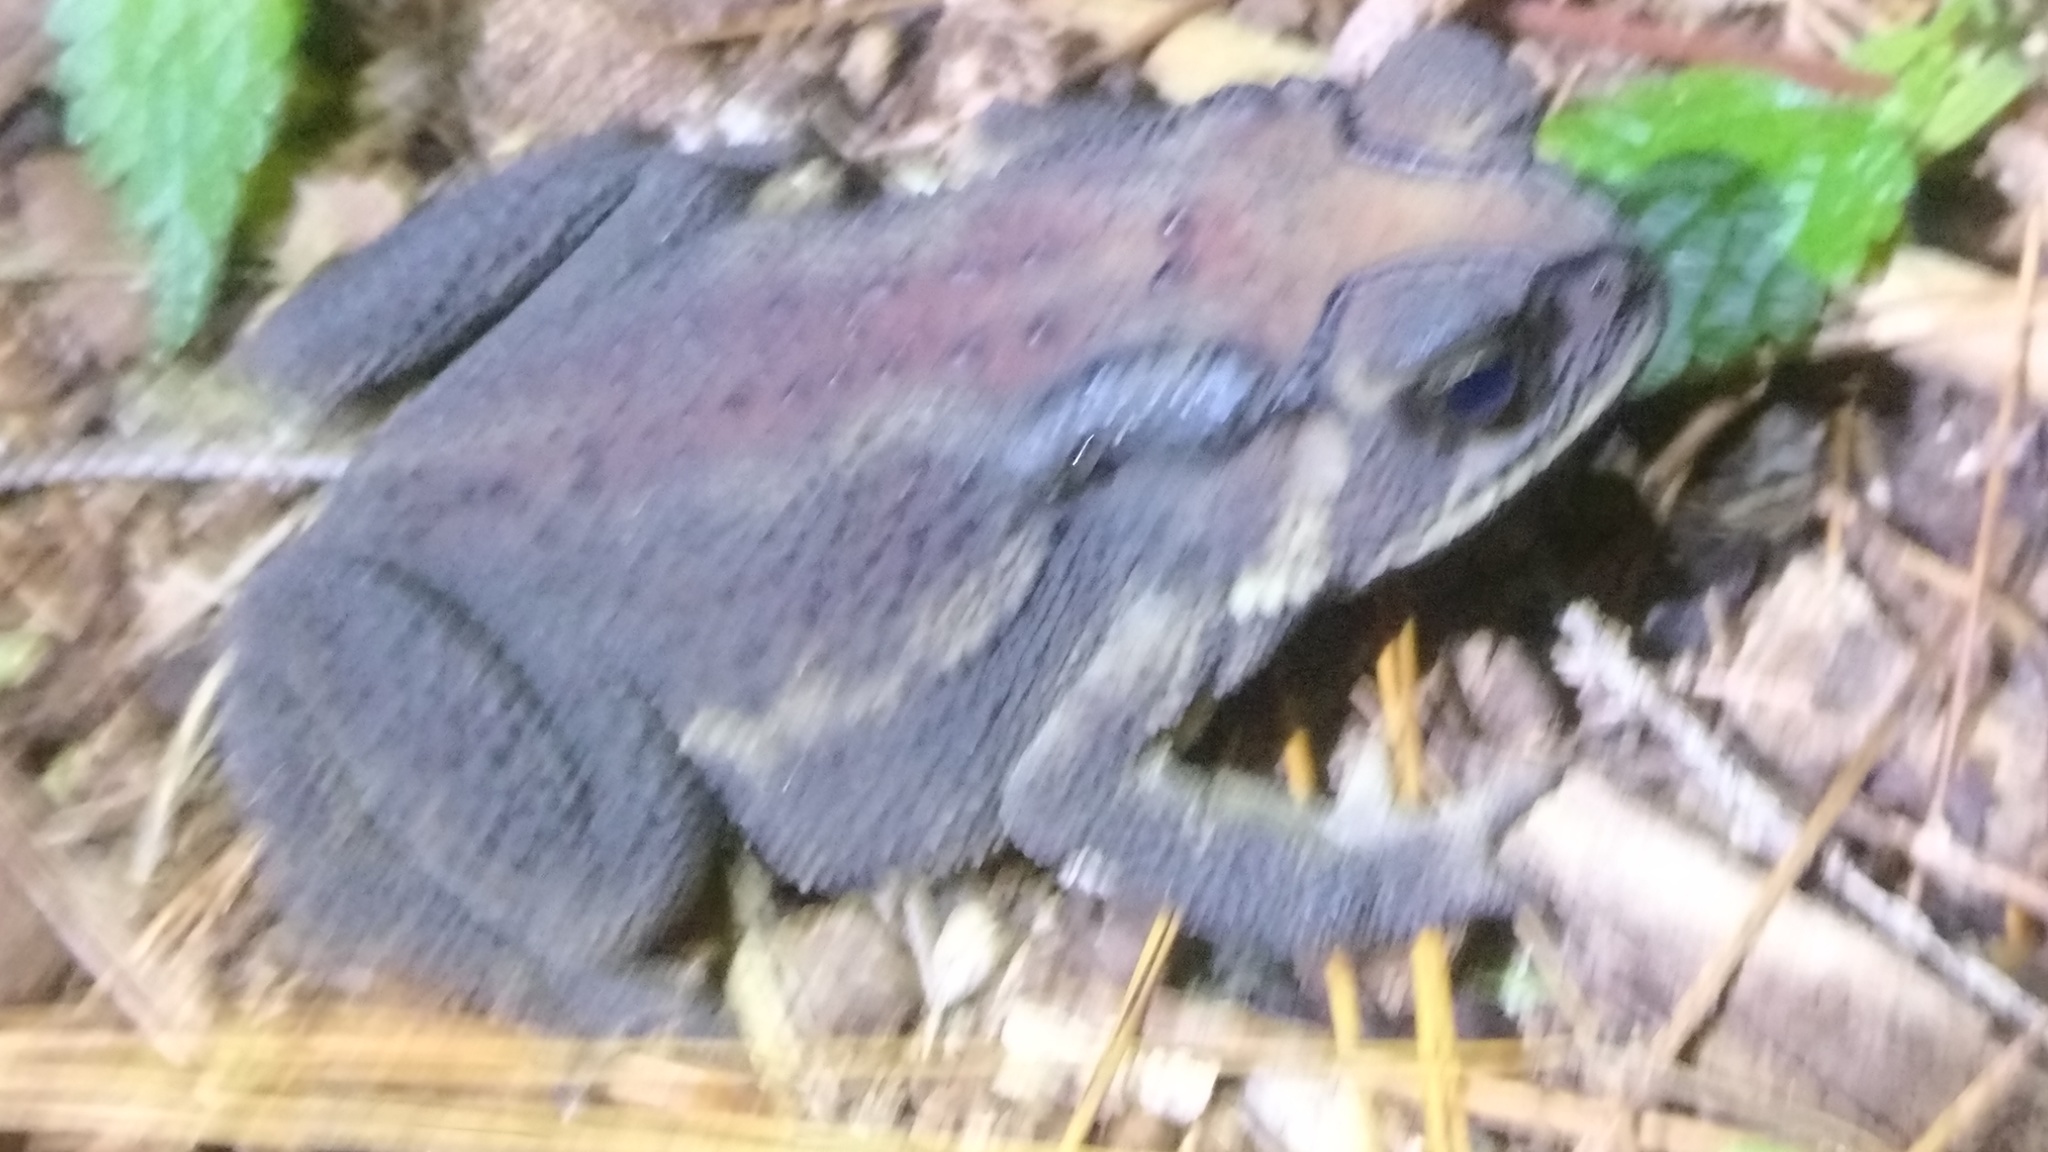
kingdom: Animalia
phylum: Chordata
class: Amphibia
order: Anura
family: Bufonidae
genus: Duttaphrynus
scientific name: Duttaphrynus melanostictus
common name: Common sunda toad
